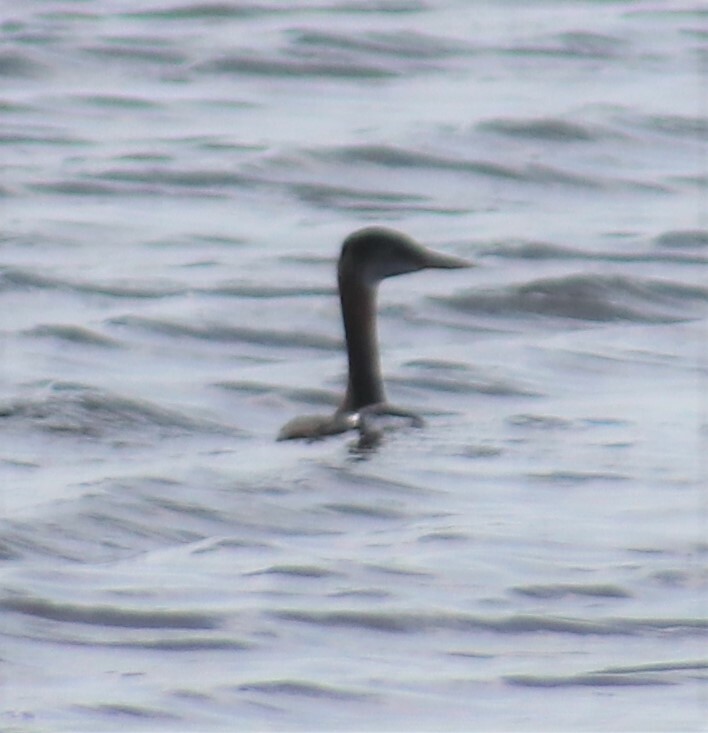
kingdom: Animalia
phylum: Chordata
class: Aves
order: Podicipediformes
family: Podicipedidae
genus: Podiceps
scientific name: Podiceps grisegena
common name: Red-necked grebe
